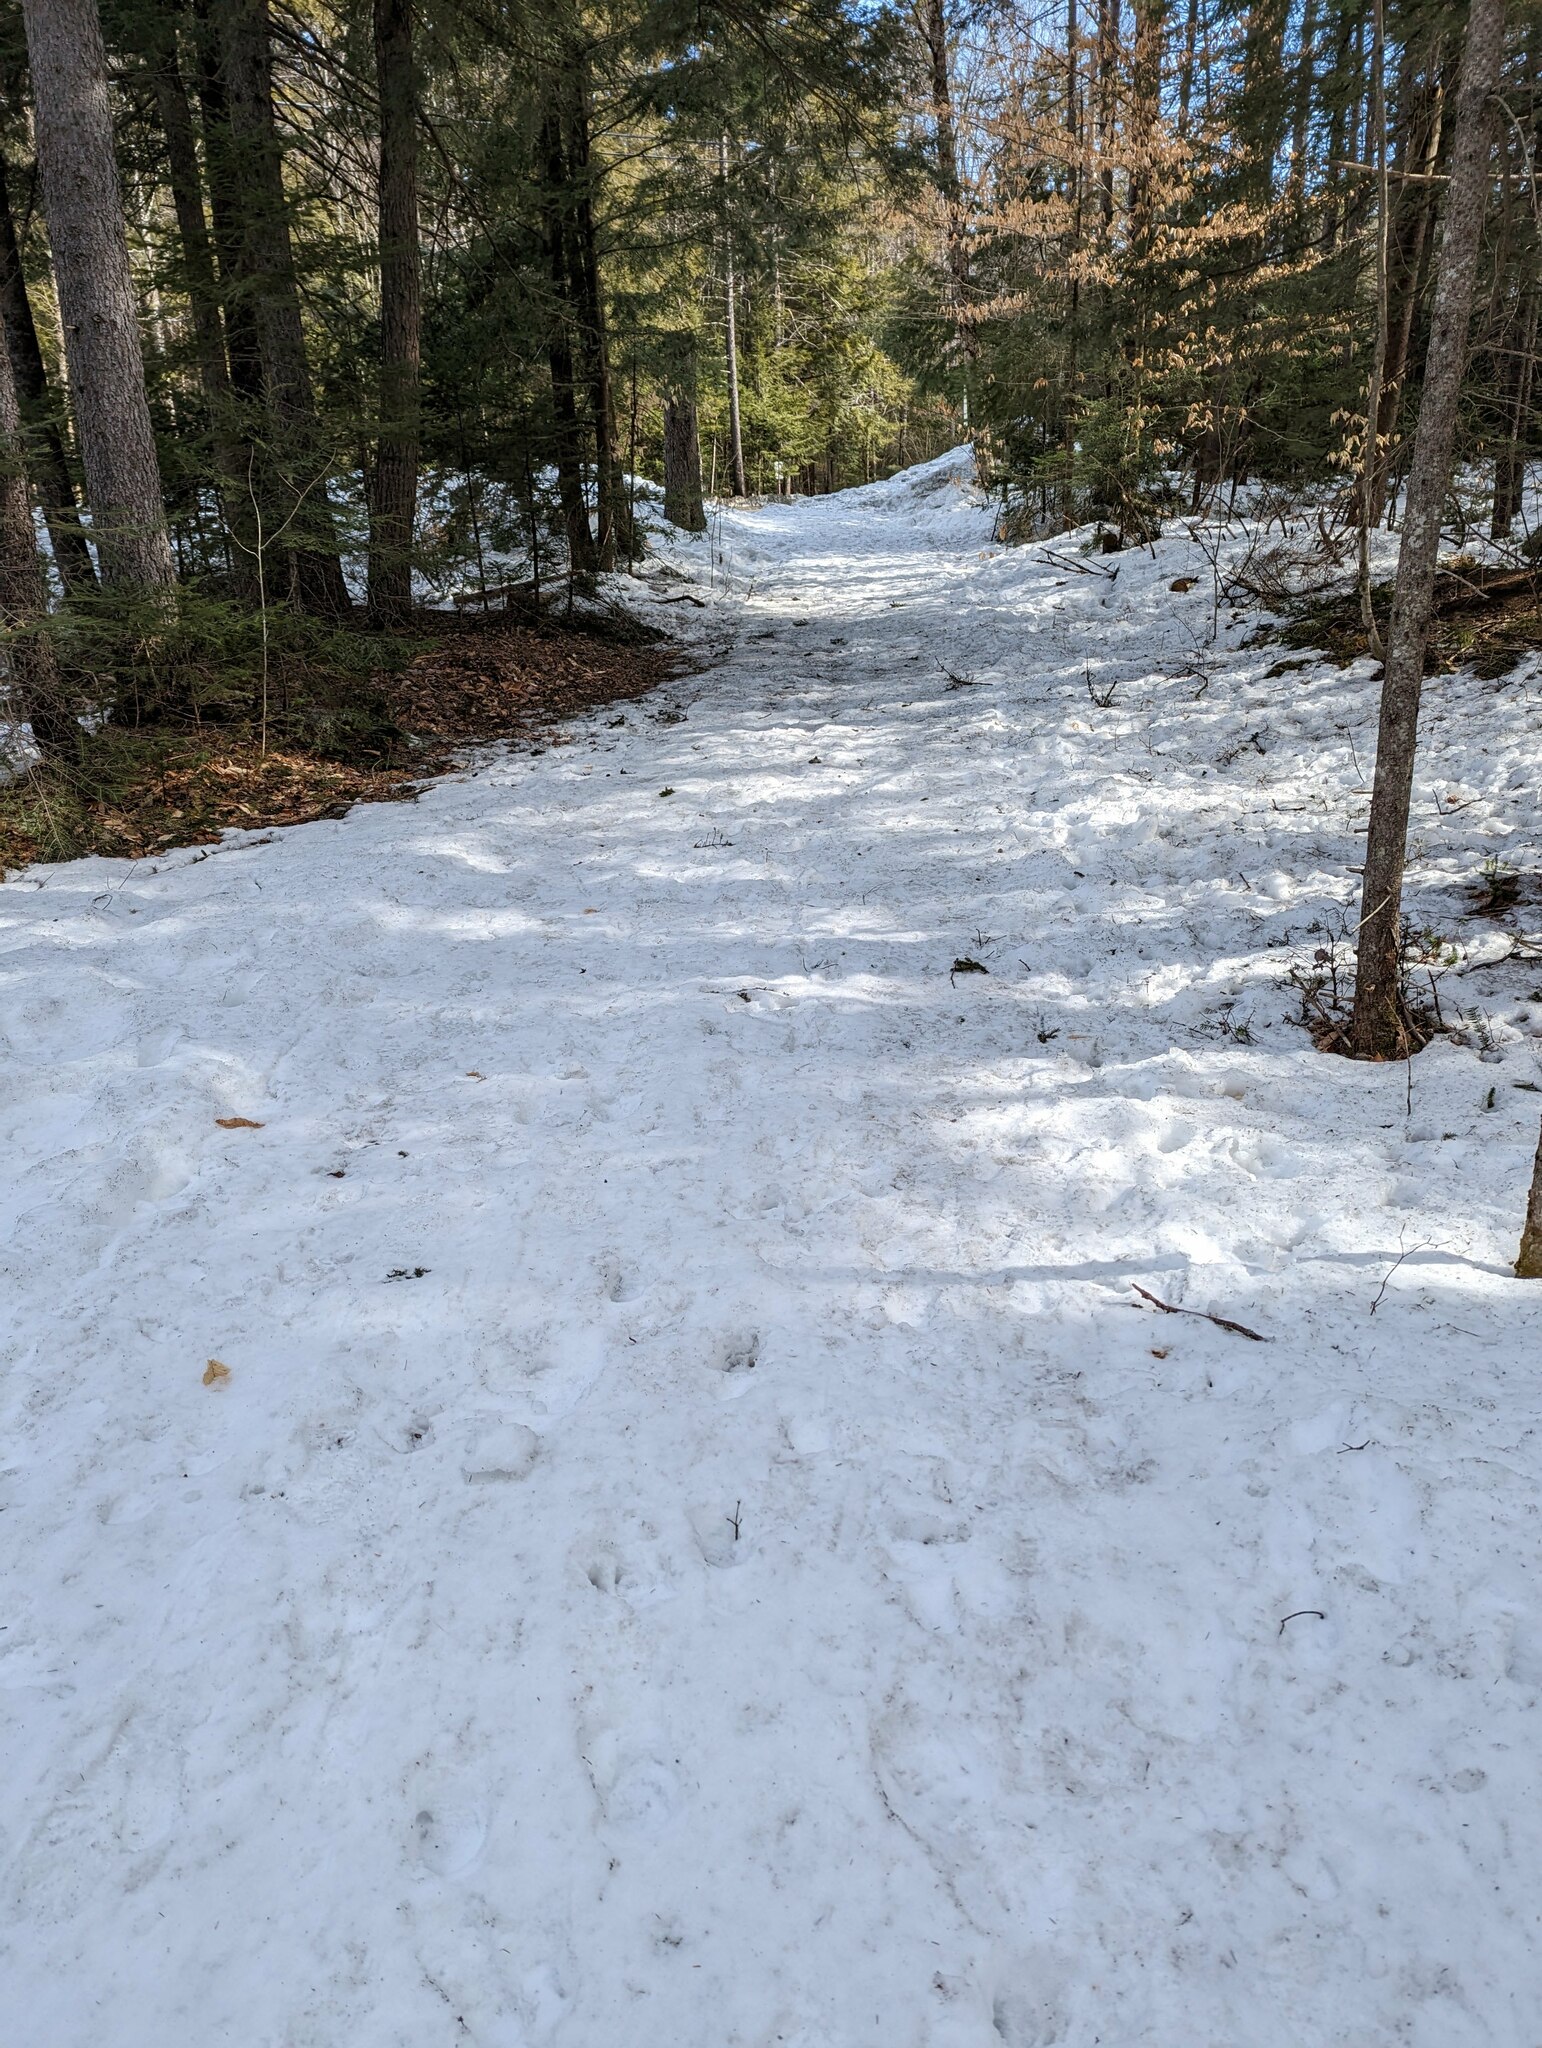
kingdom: Animalia
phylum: Chordata
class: Mammalia
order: Artiodactyla
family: Cervidae
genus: Odocoileus
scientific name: Odocoileus virginianus
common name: White-tailed deer
